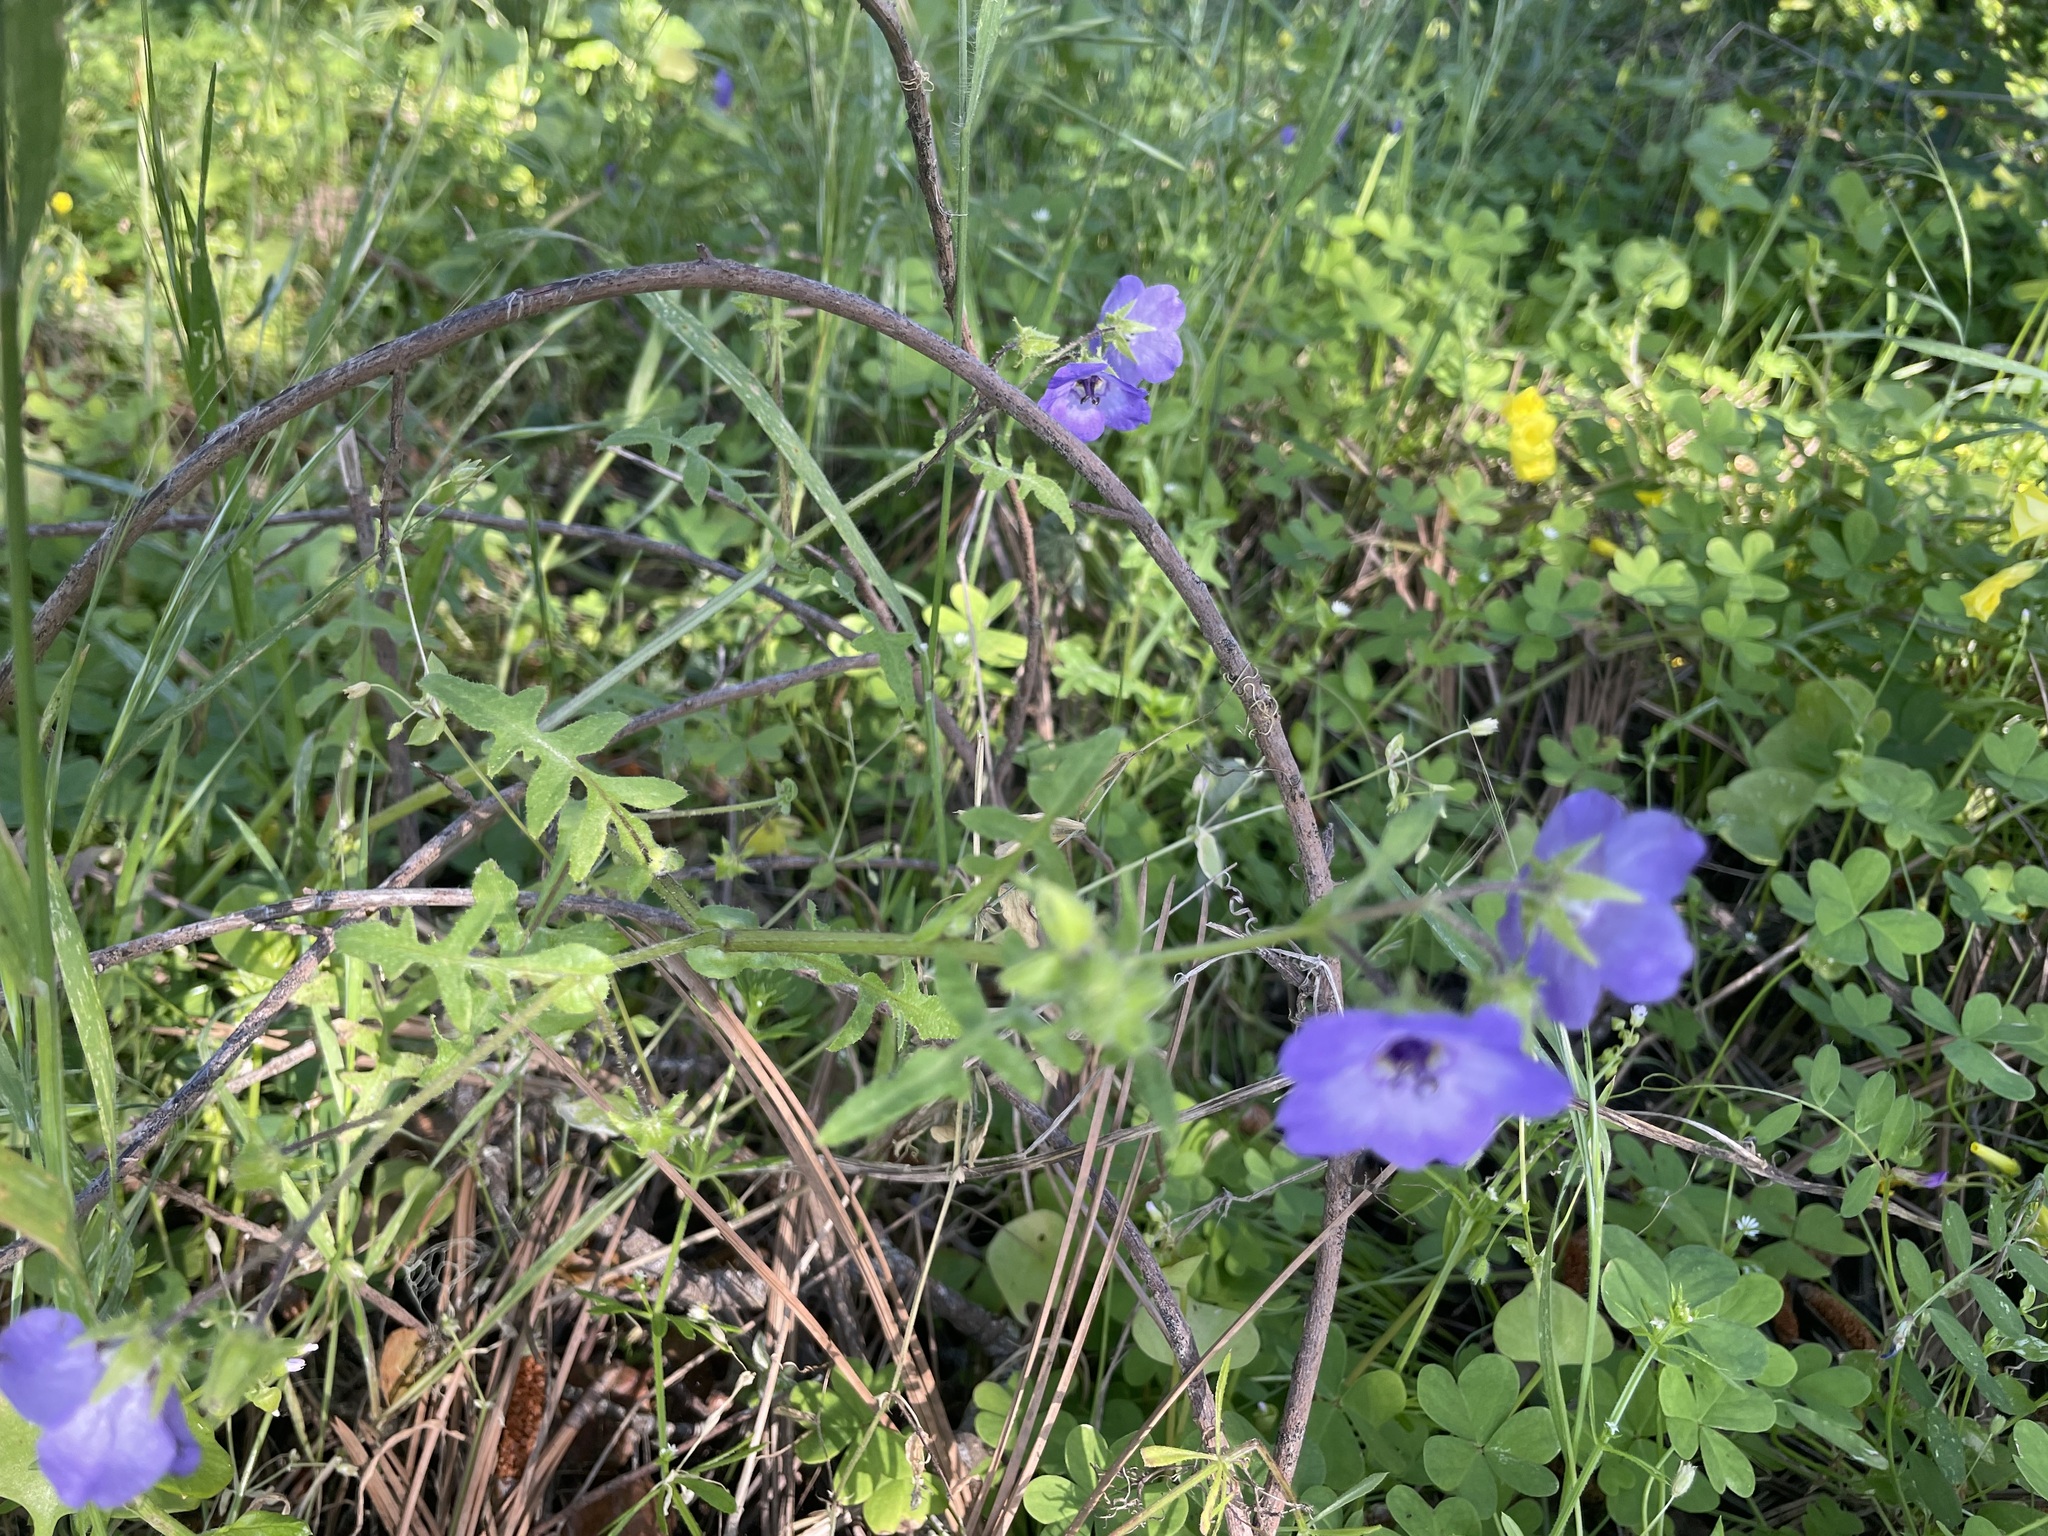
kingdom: Plantae
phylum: Tracheophyta
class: Magnoliopsida
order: Boraginales
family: Hydrophyllaceae
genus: Pholistoma
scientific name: Pholistoma auritum
